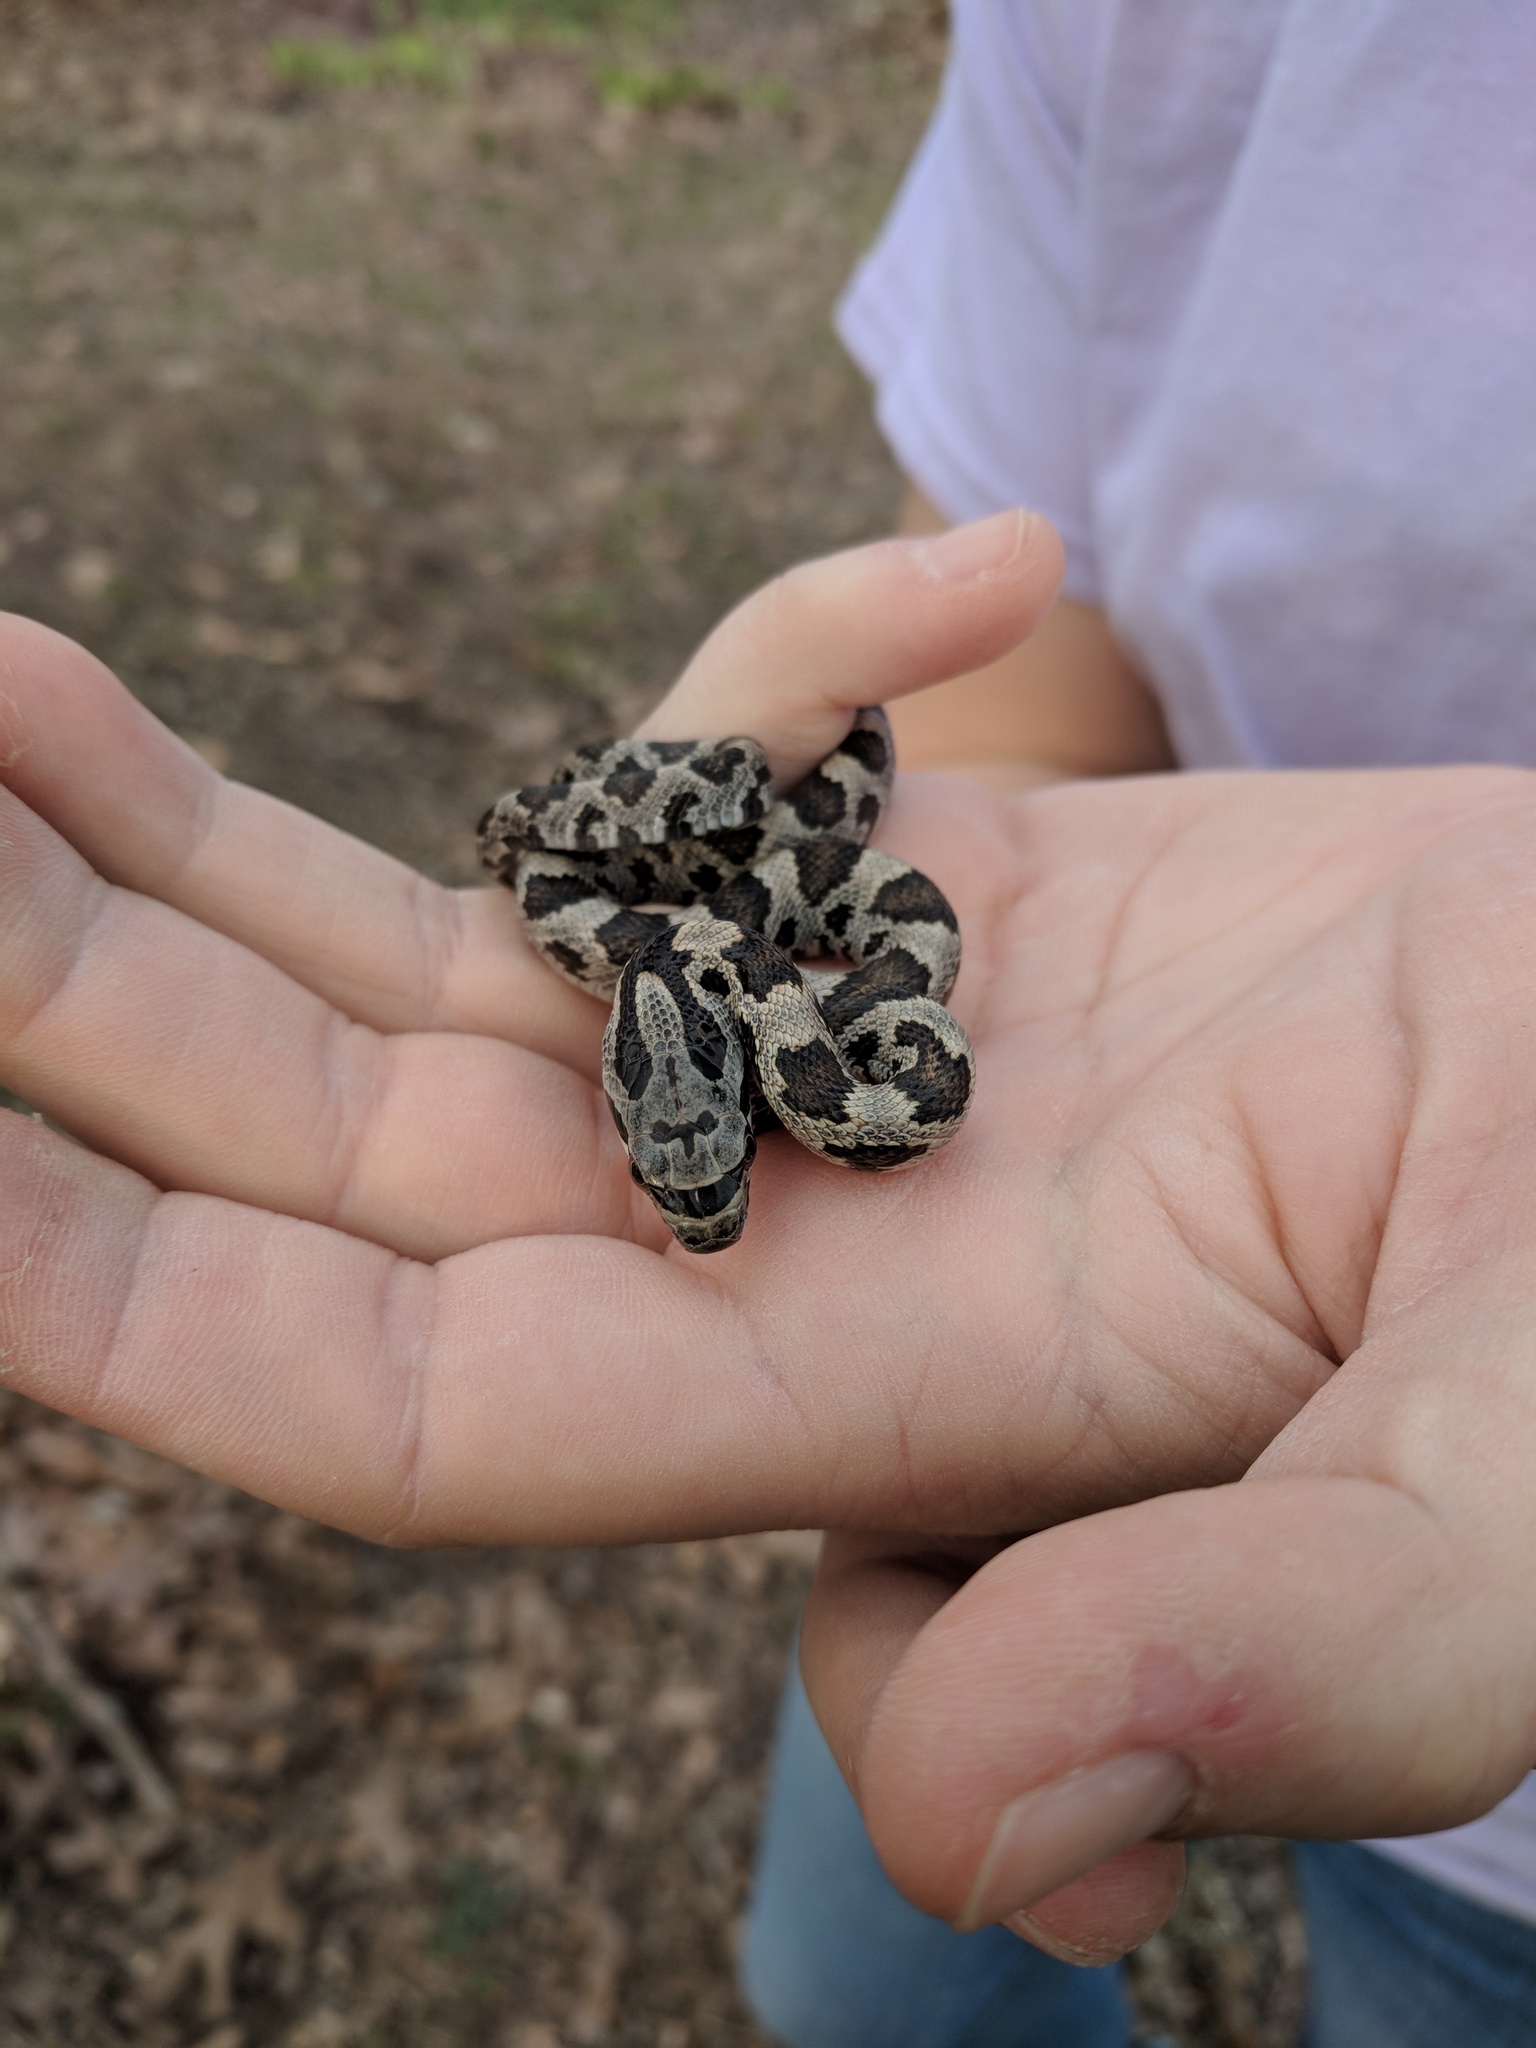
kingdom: Animalia
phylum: Chordata
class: Squamata
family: Colubridae
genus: Pantherophis
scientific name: Pantherophis obsoletus
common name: Black rat snake
